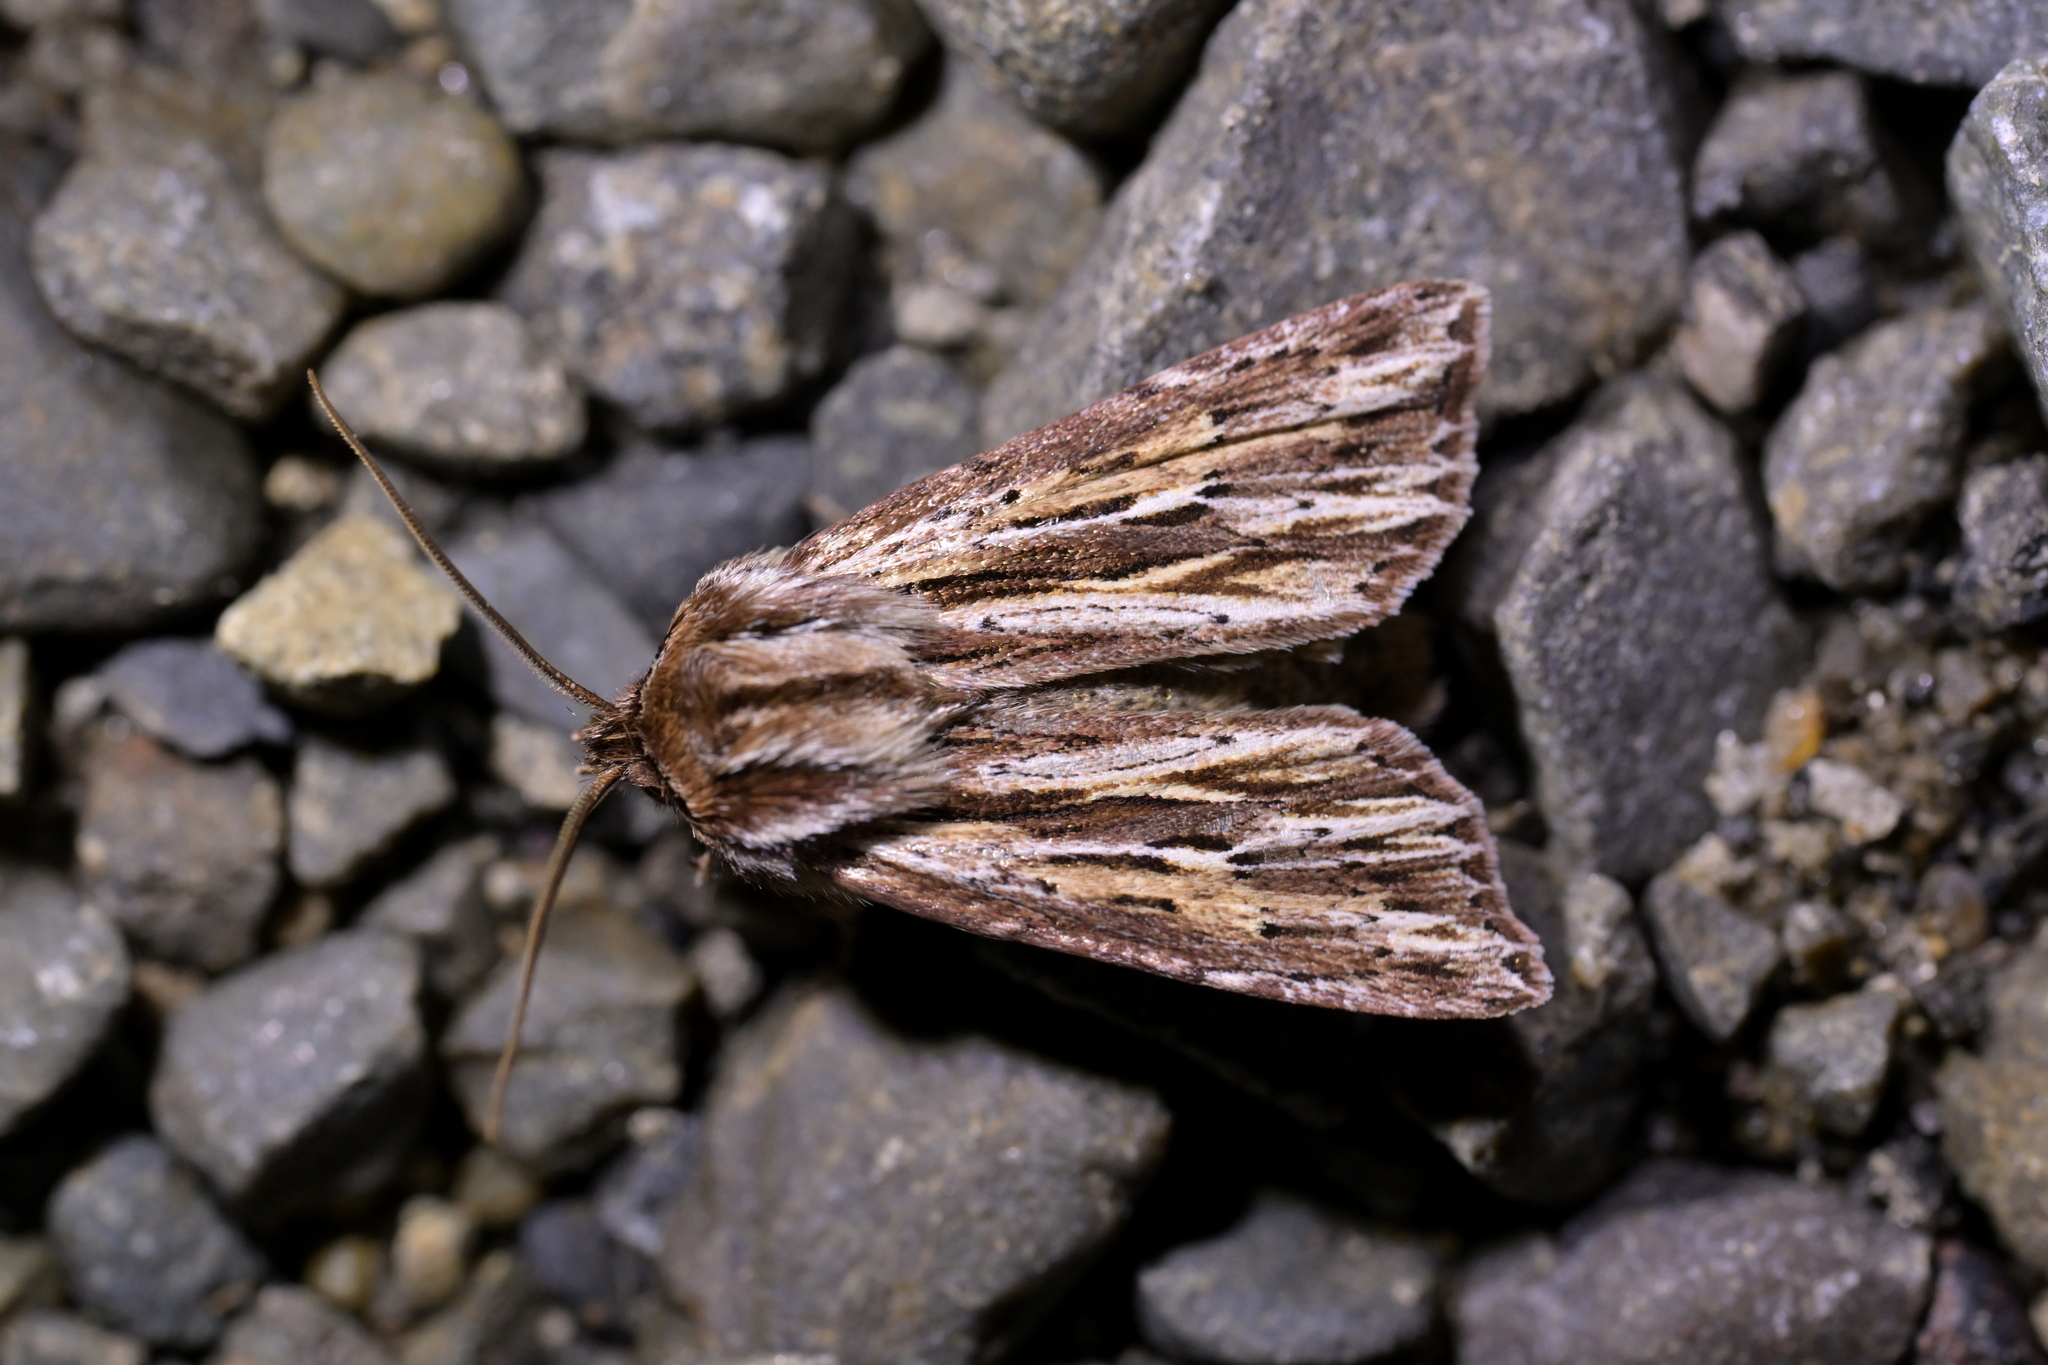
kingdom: Animalia
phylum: Arthropoda
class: Insecta
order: Lepidoptera
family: Noctuidae
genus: Ichneutica
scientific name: Ichneutica
